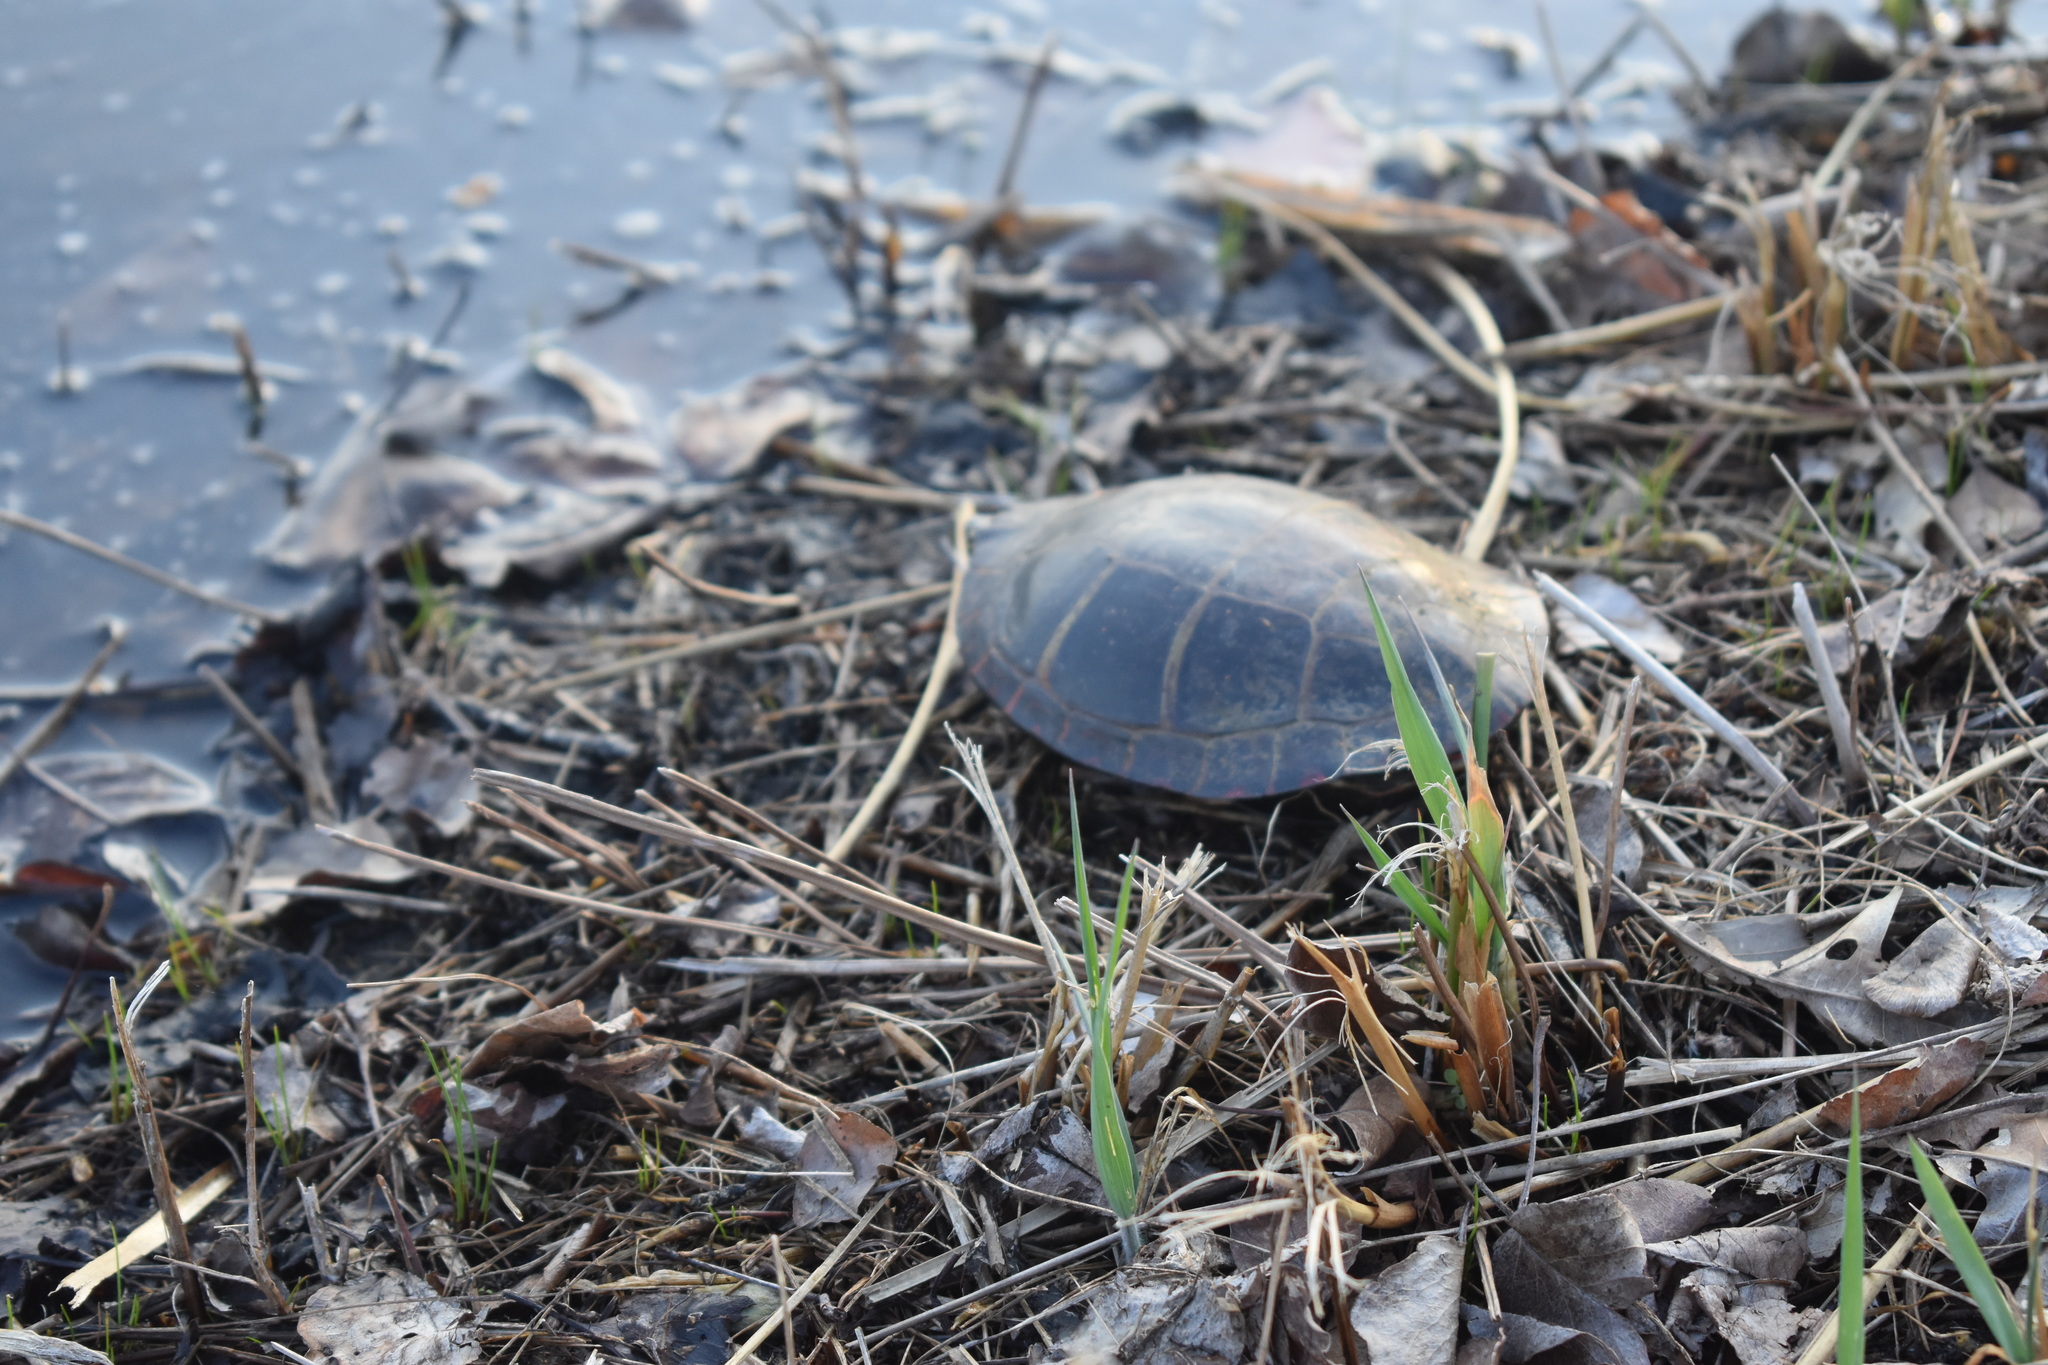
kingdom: Animalia
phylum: Chordata
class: Testudines
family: Emydidae
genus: Chrysemys
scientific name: Chrysemys picta
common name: Painted turtle
